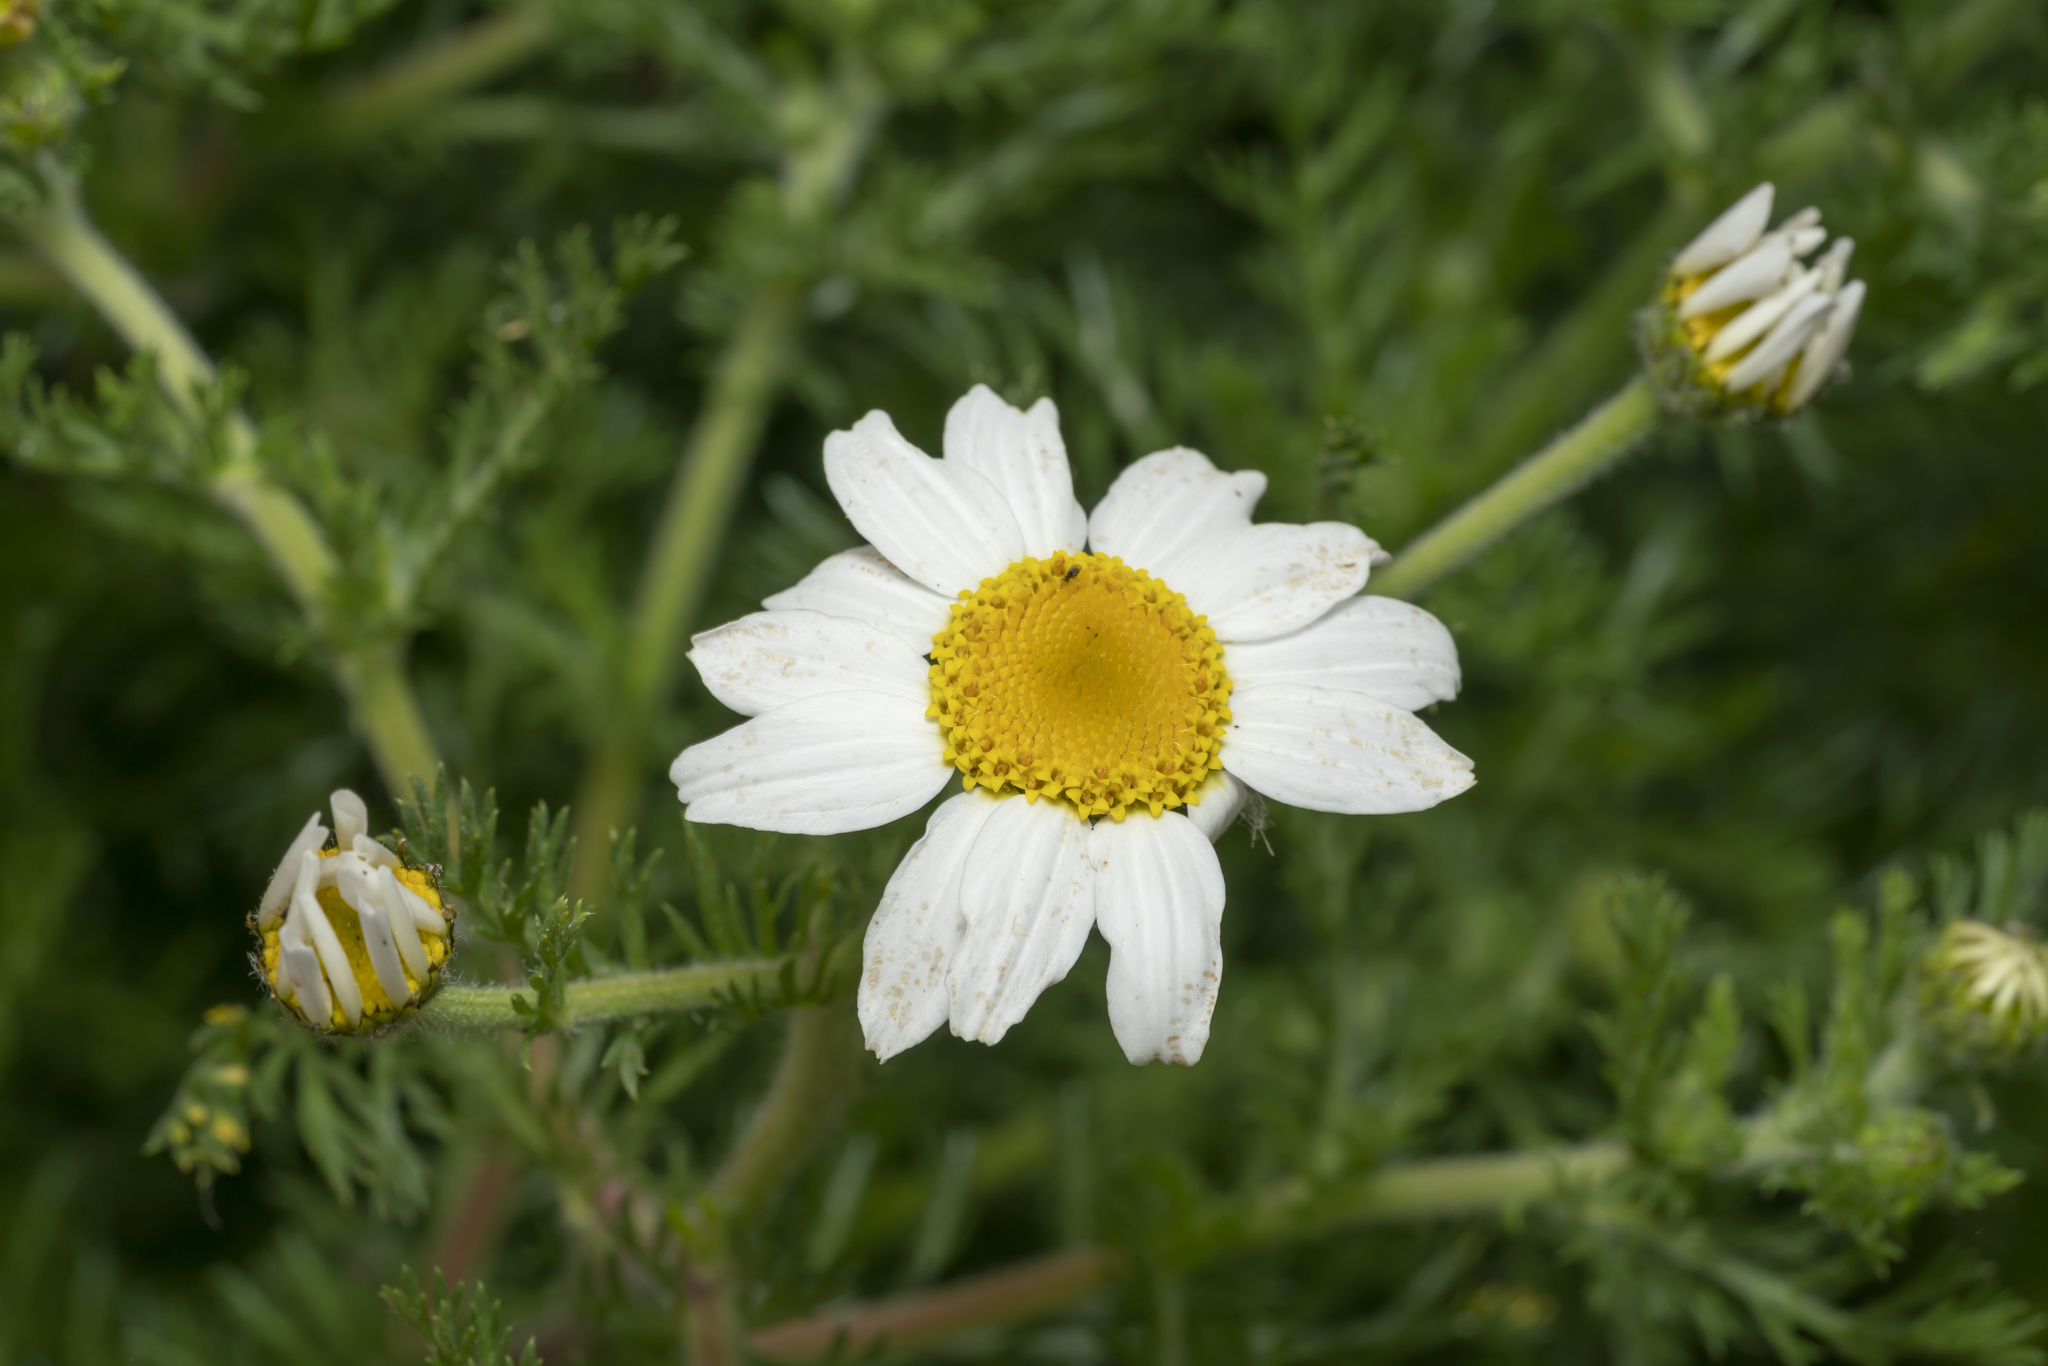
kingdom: Plantae
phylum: Tracheophyta
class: Magnoliopsida
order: Asterales
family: Asteraceae
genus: Anacyclus
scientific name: Anacyclus clavatus
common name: Whitebuttons
